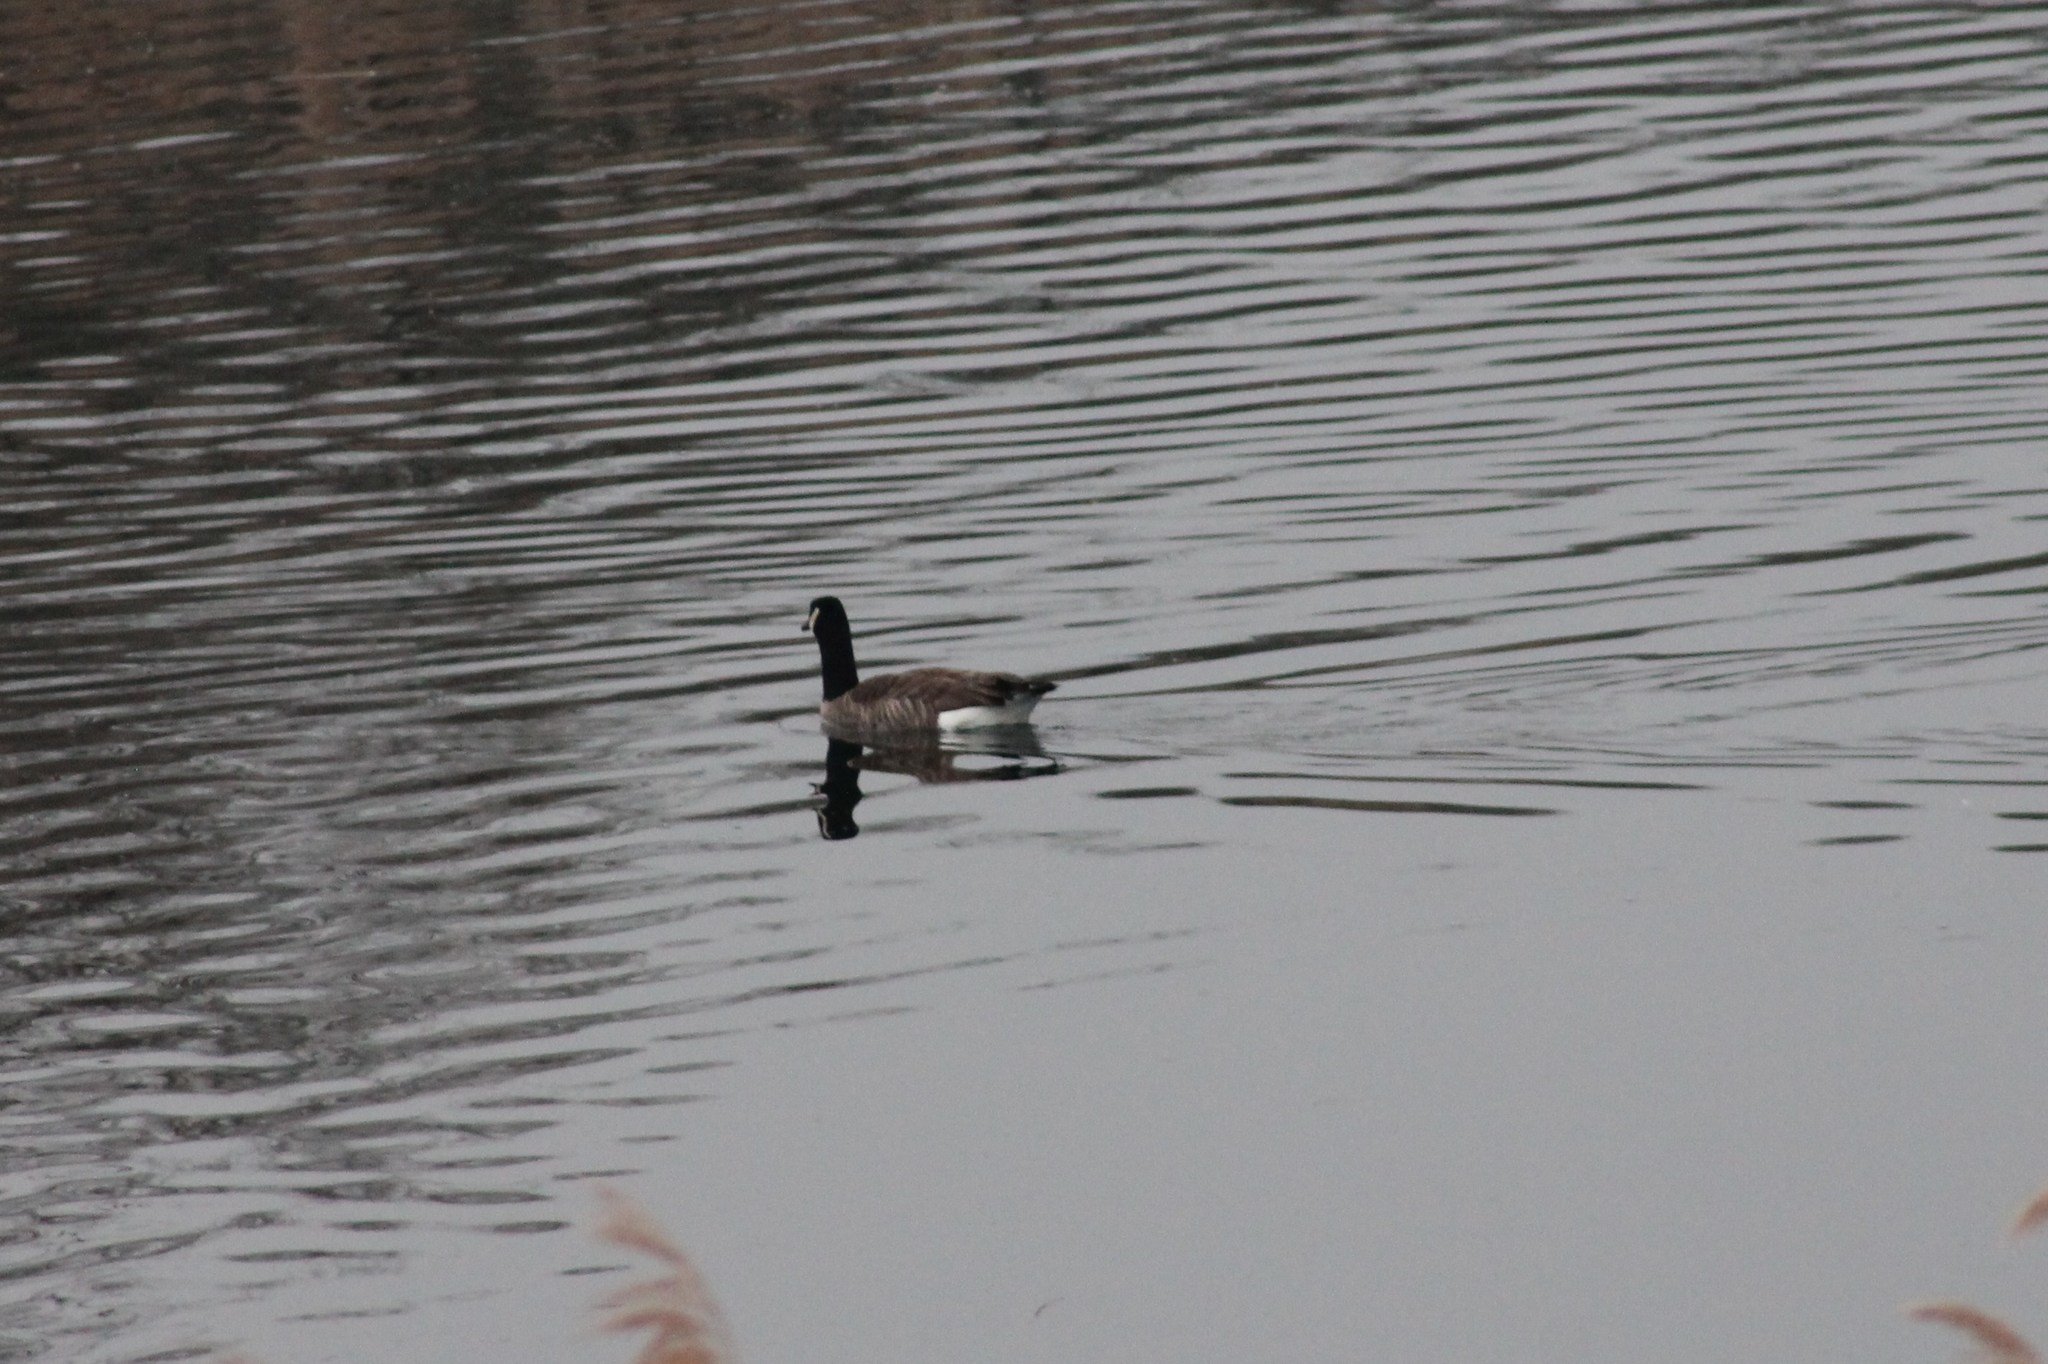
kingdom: Animalia
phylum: Chordata
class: Aves
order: Anseriformes
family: Anatidae
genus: Branta
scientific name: Branta canadensis
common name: Canada goose
